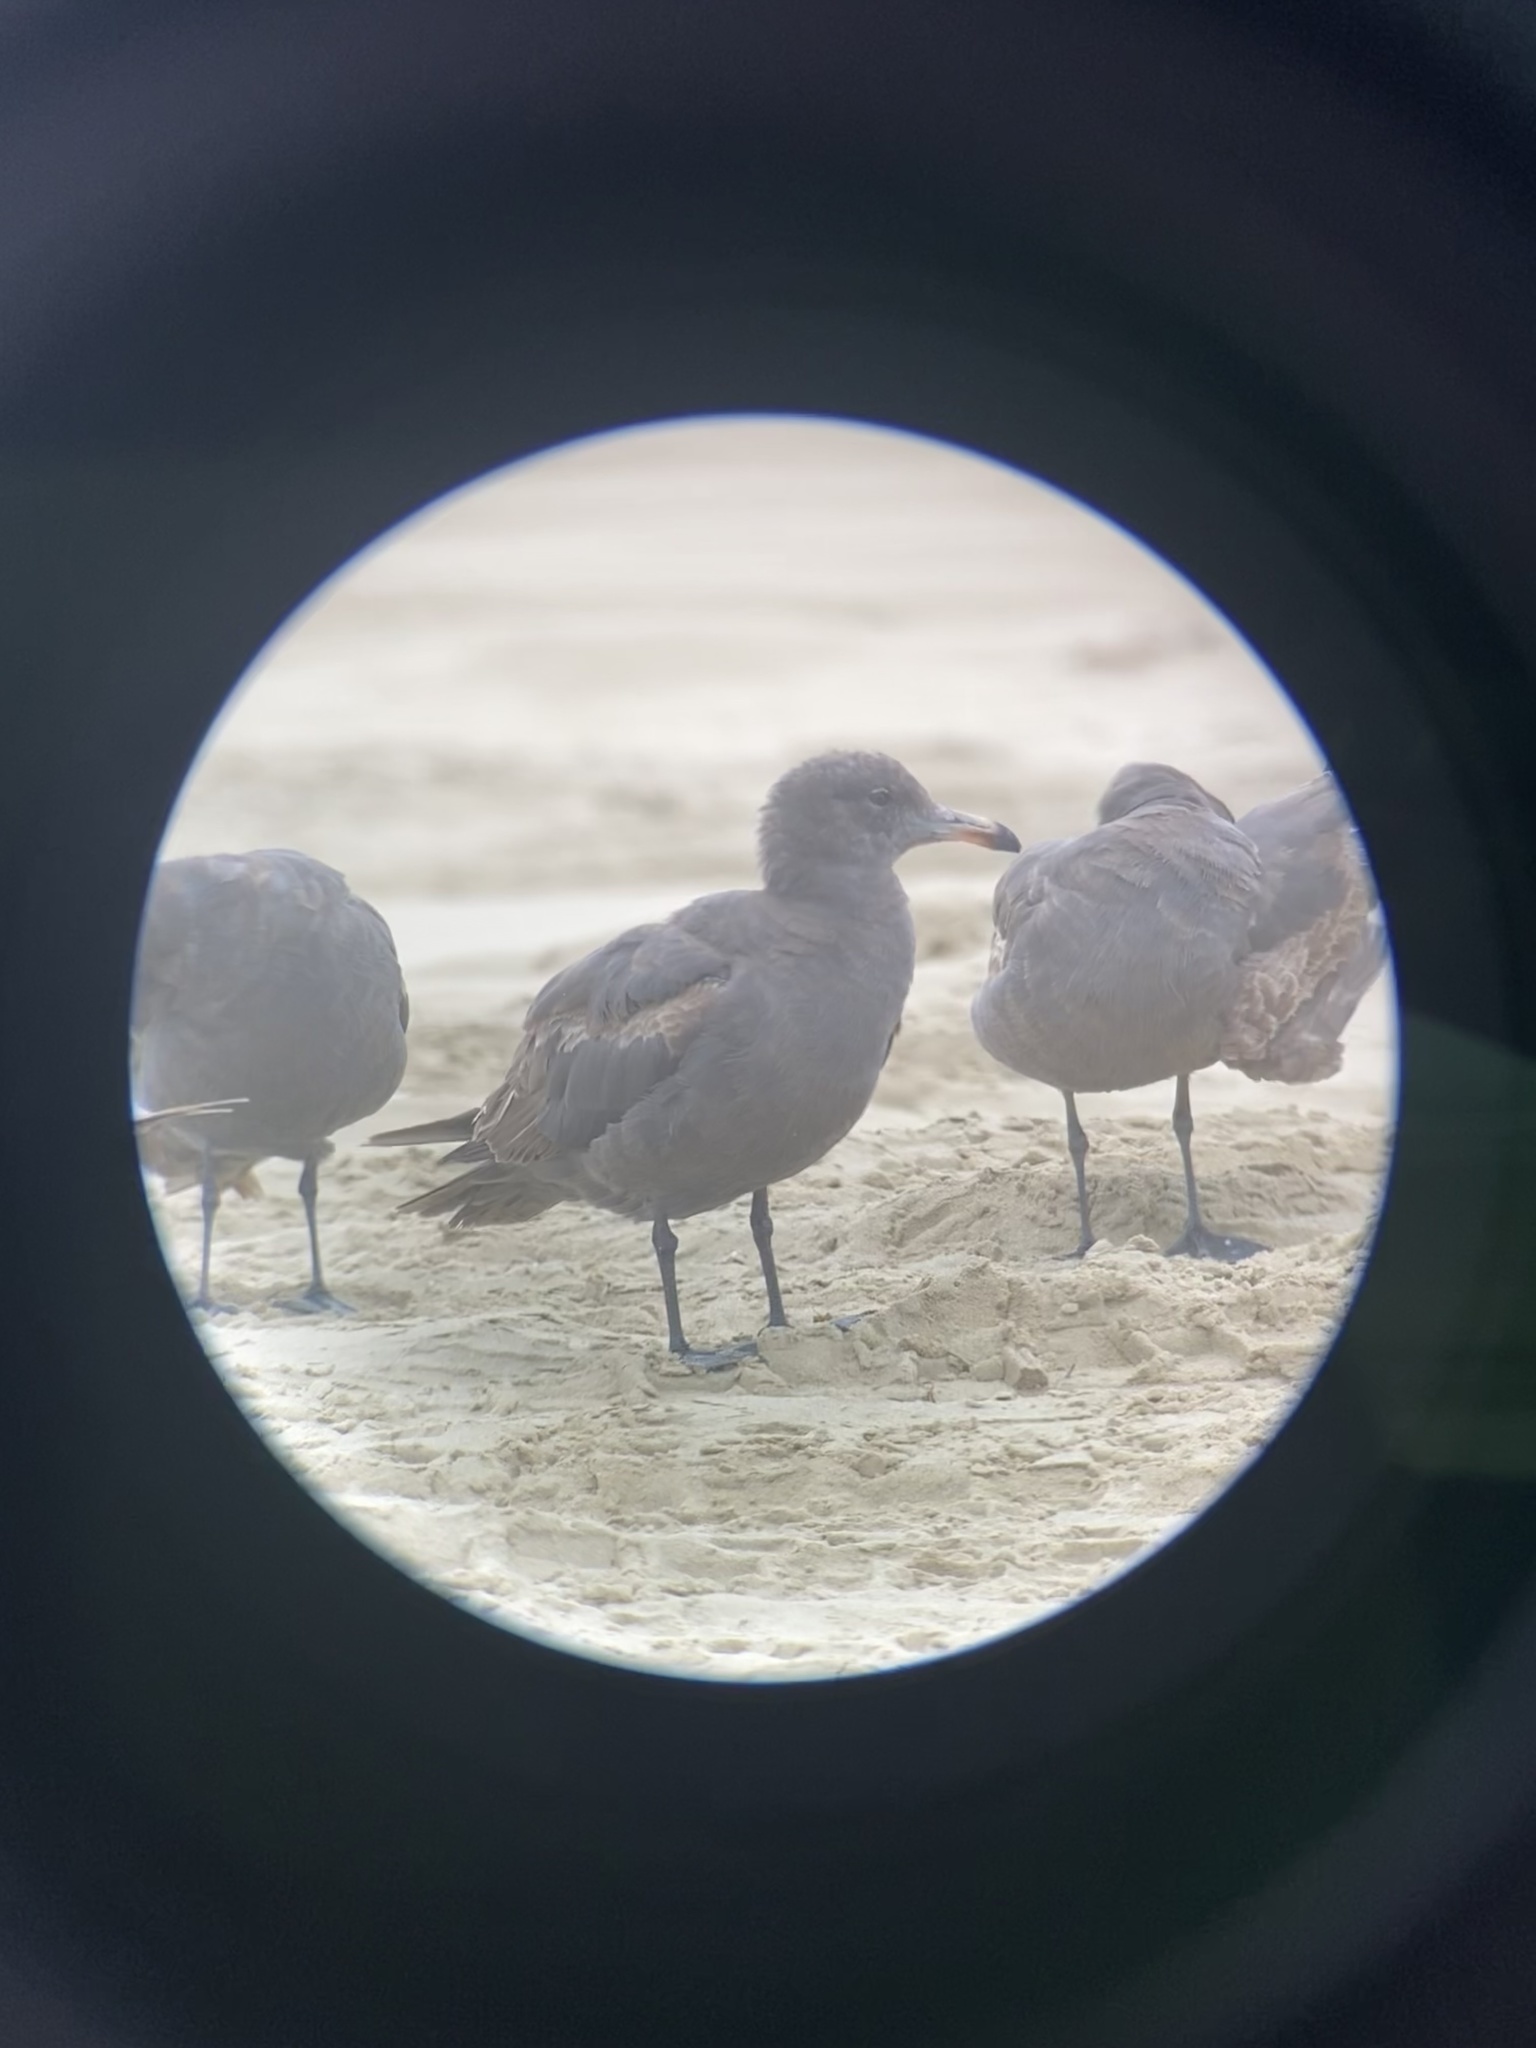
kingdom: Animalia
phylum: Chordata
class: Aves
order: Charadriiformes
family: Laridae
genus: Larus
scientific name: Larus heermanni
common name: Heermann's gull
